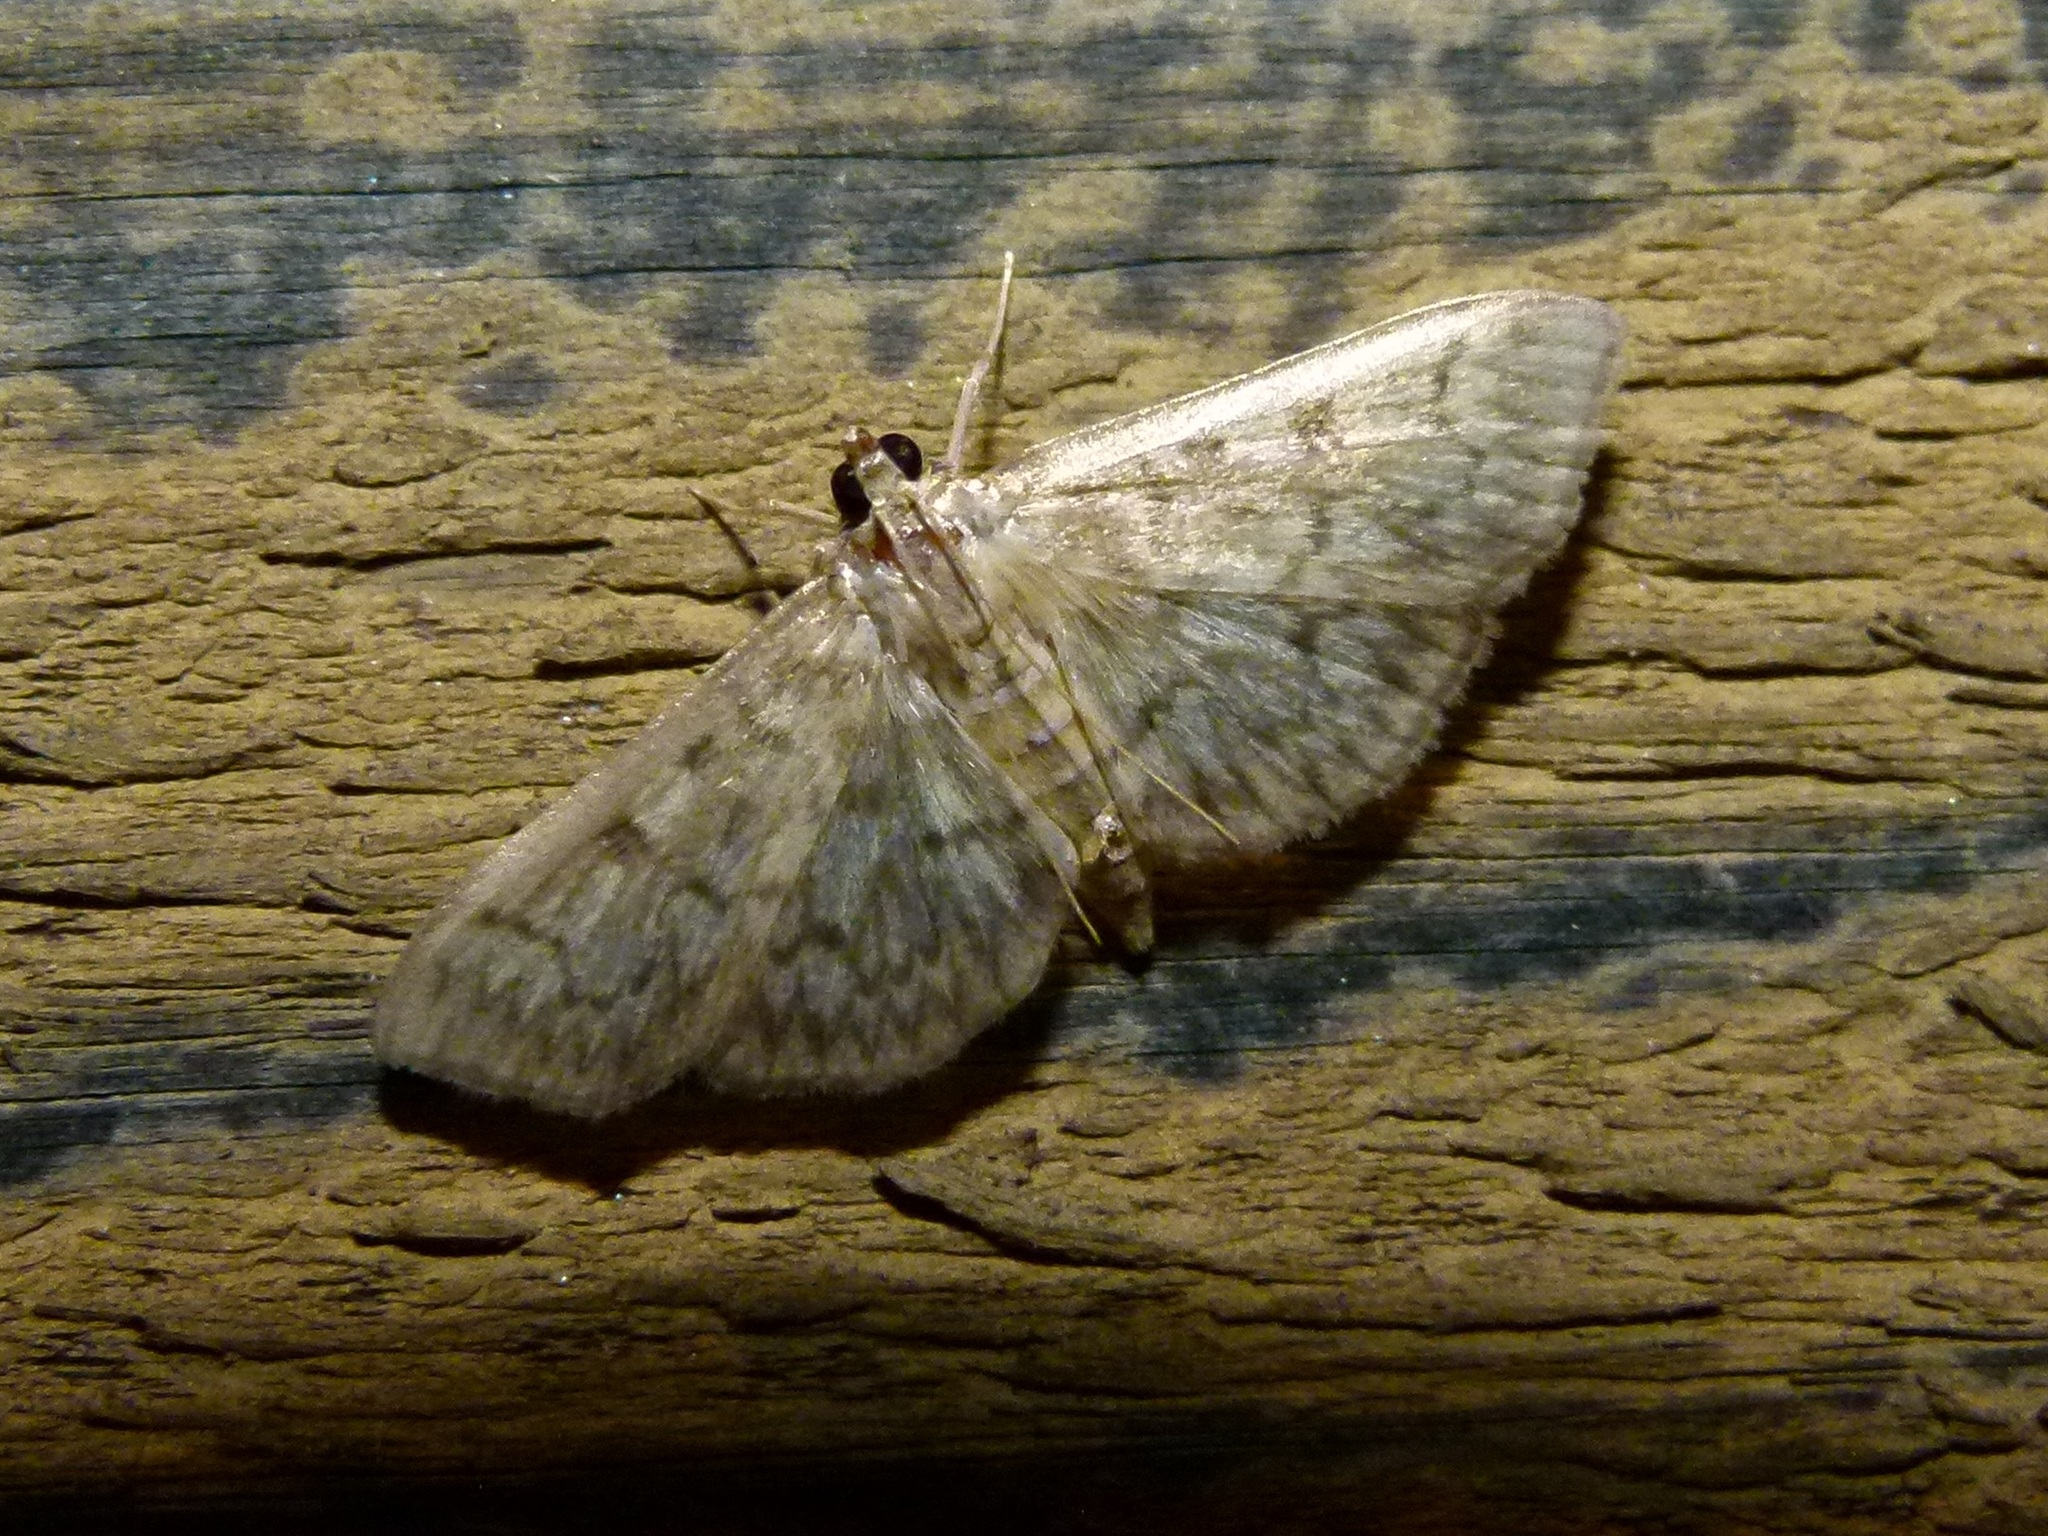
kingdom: Animalia
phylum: Arthropoda
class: Insecta
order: Lepidoptera
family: Crambidae
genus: Herpetogramma
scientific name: Herpetogramma pertextalis
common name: Bold-feathered grass moth
